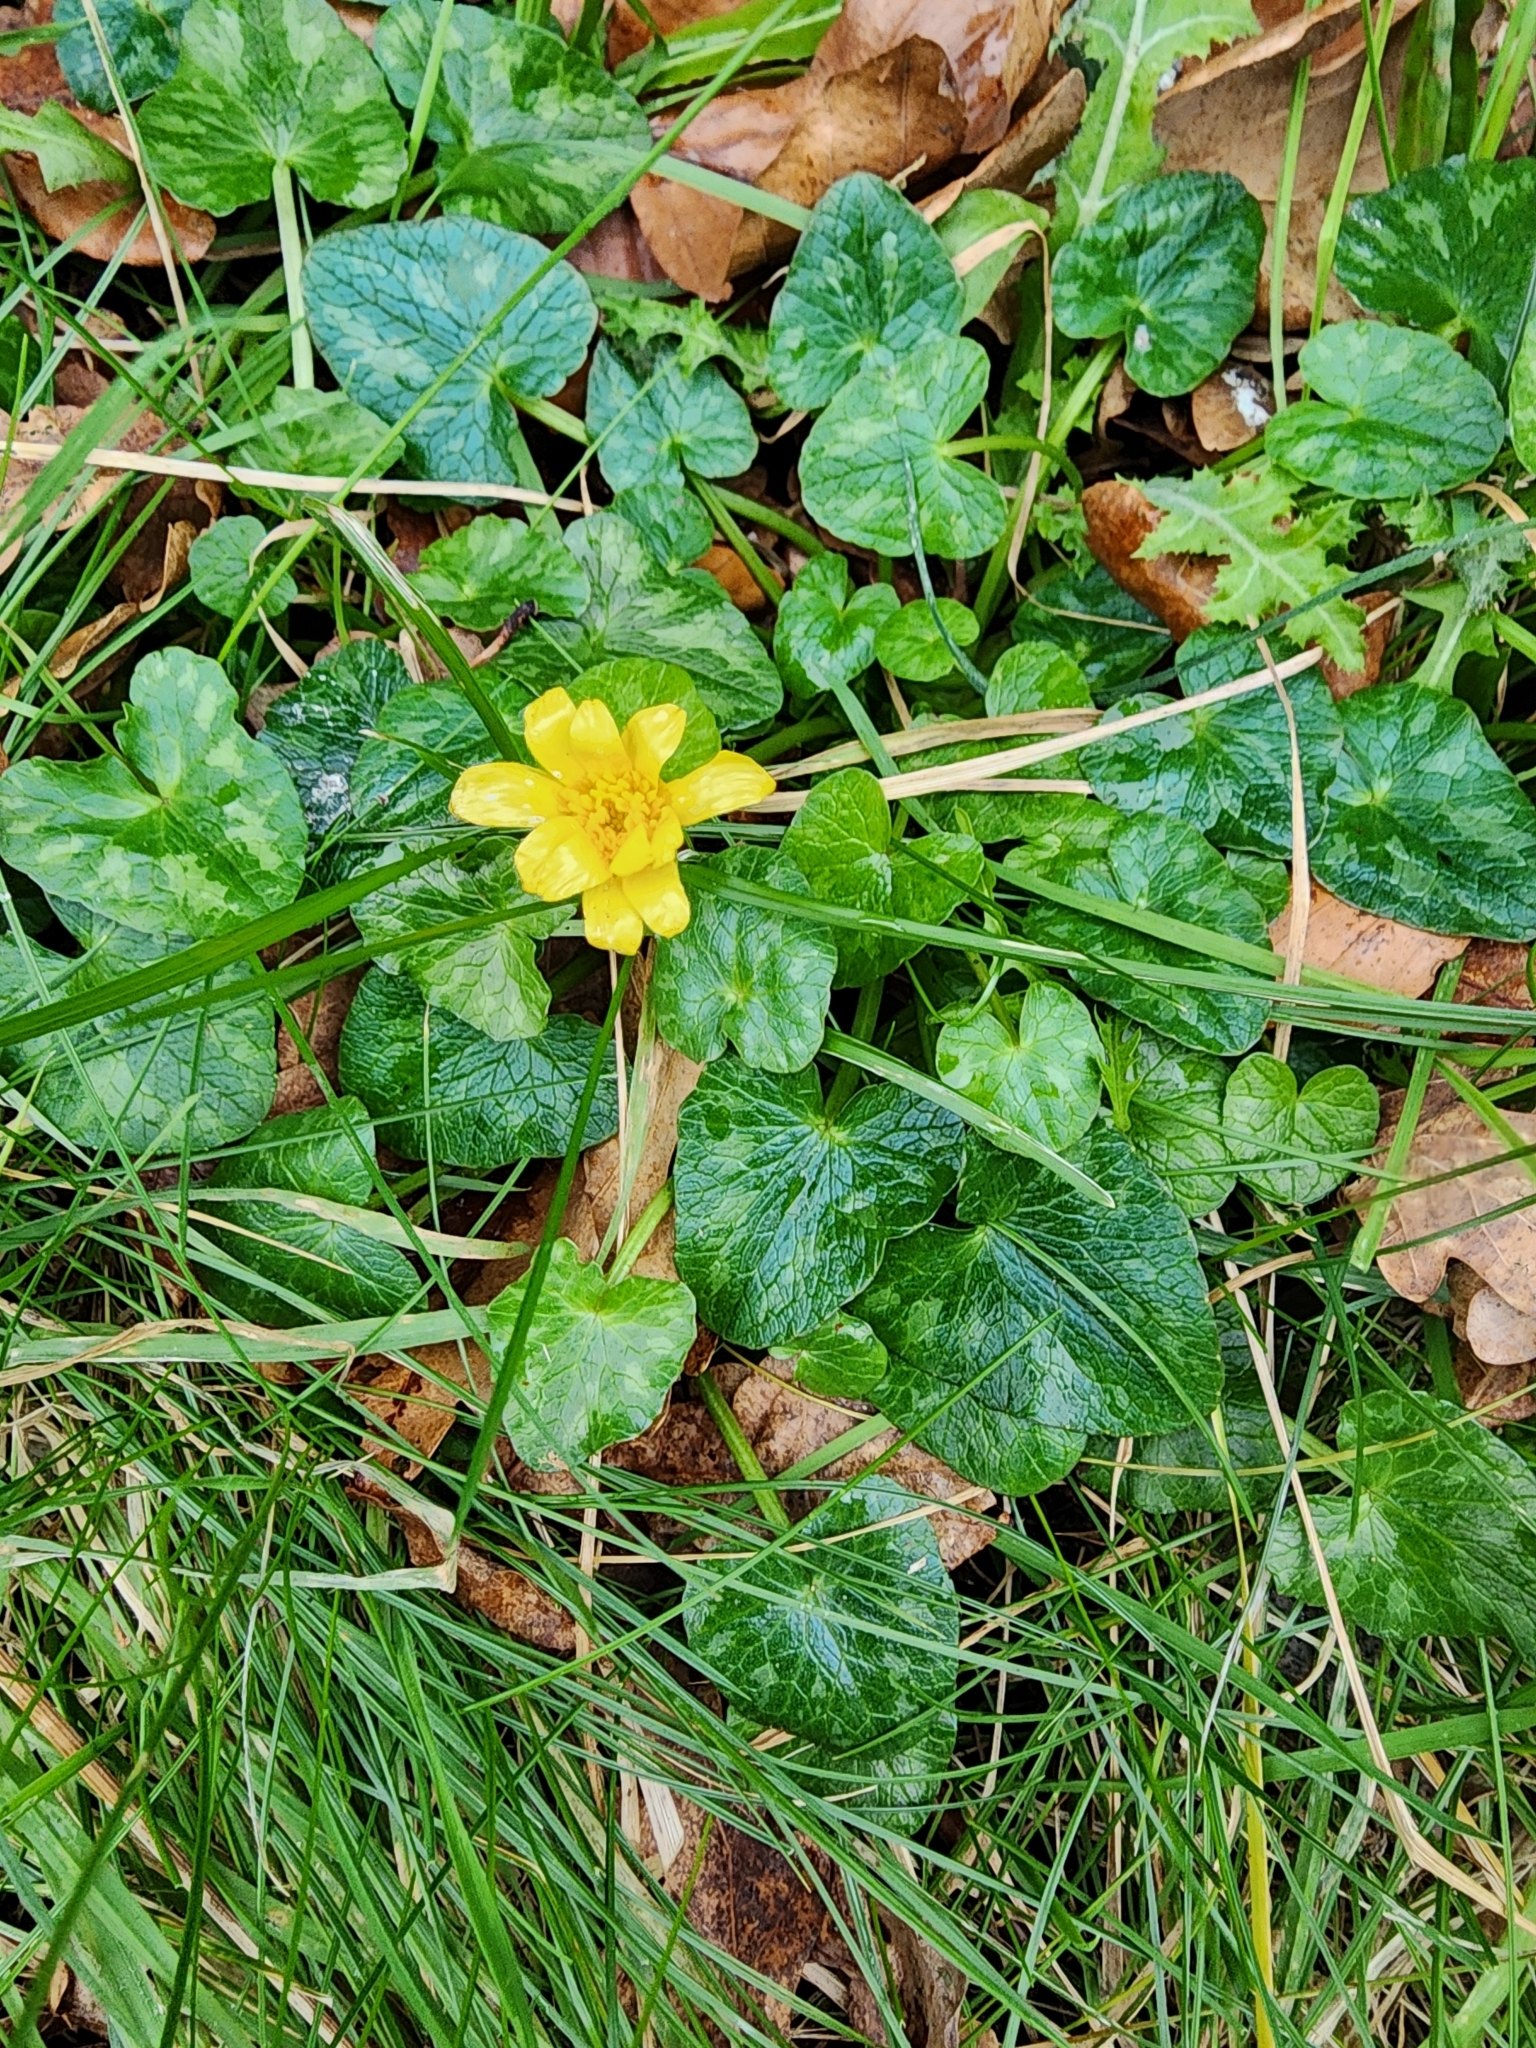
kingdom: Plantae
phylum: Tracheophyta
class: Magnoliopsida
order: Ranunculales
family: Ranunculaceae
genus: Ficaria
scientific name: Ficaria verna
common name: Lesser celandine
